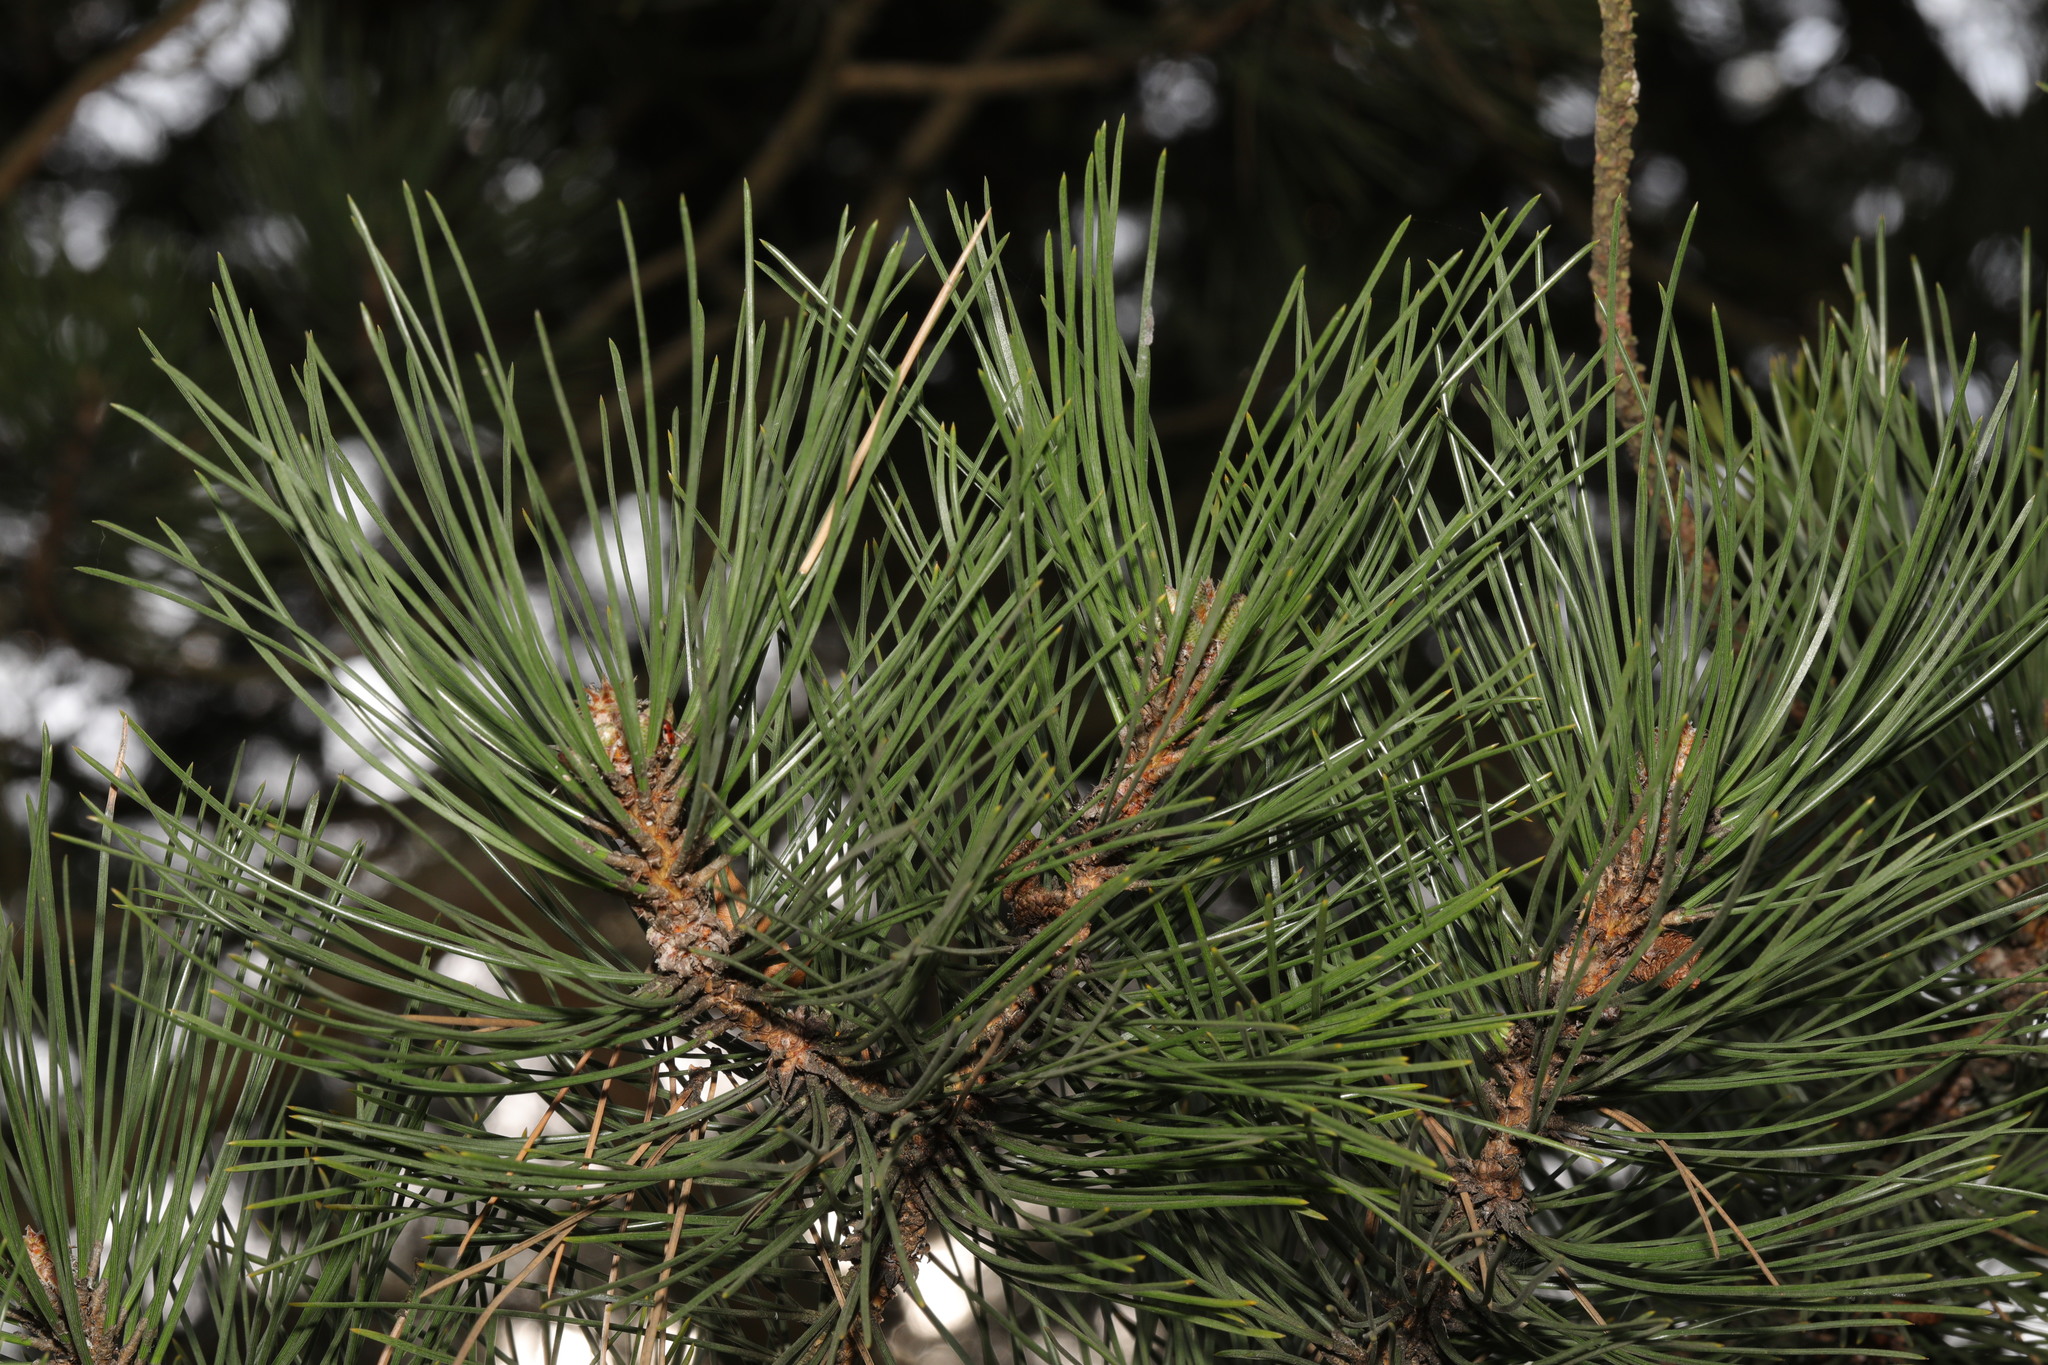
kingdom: Plantae
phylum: Tracheophyta
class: Pinopsida
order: Pinales
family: Pinaceae
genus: Pinus
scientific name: Pinus sylvestris
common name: Scots pine
